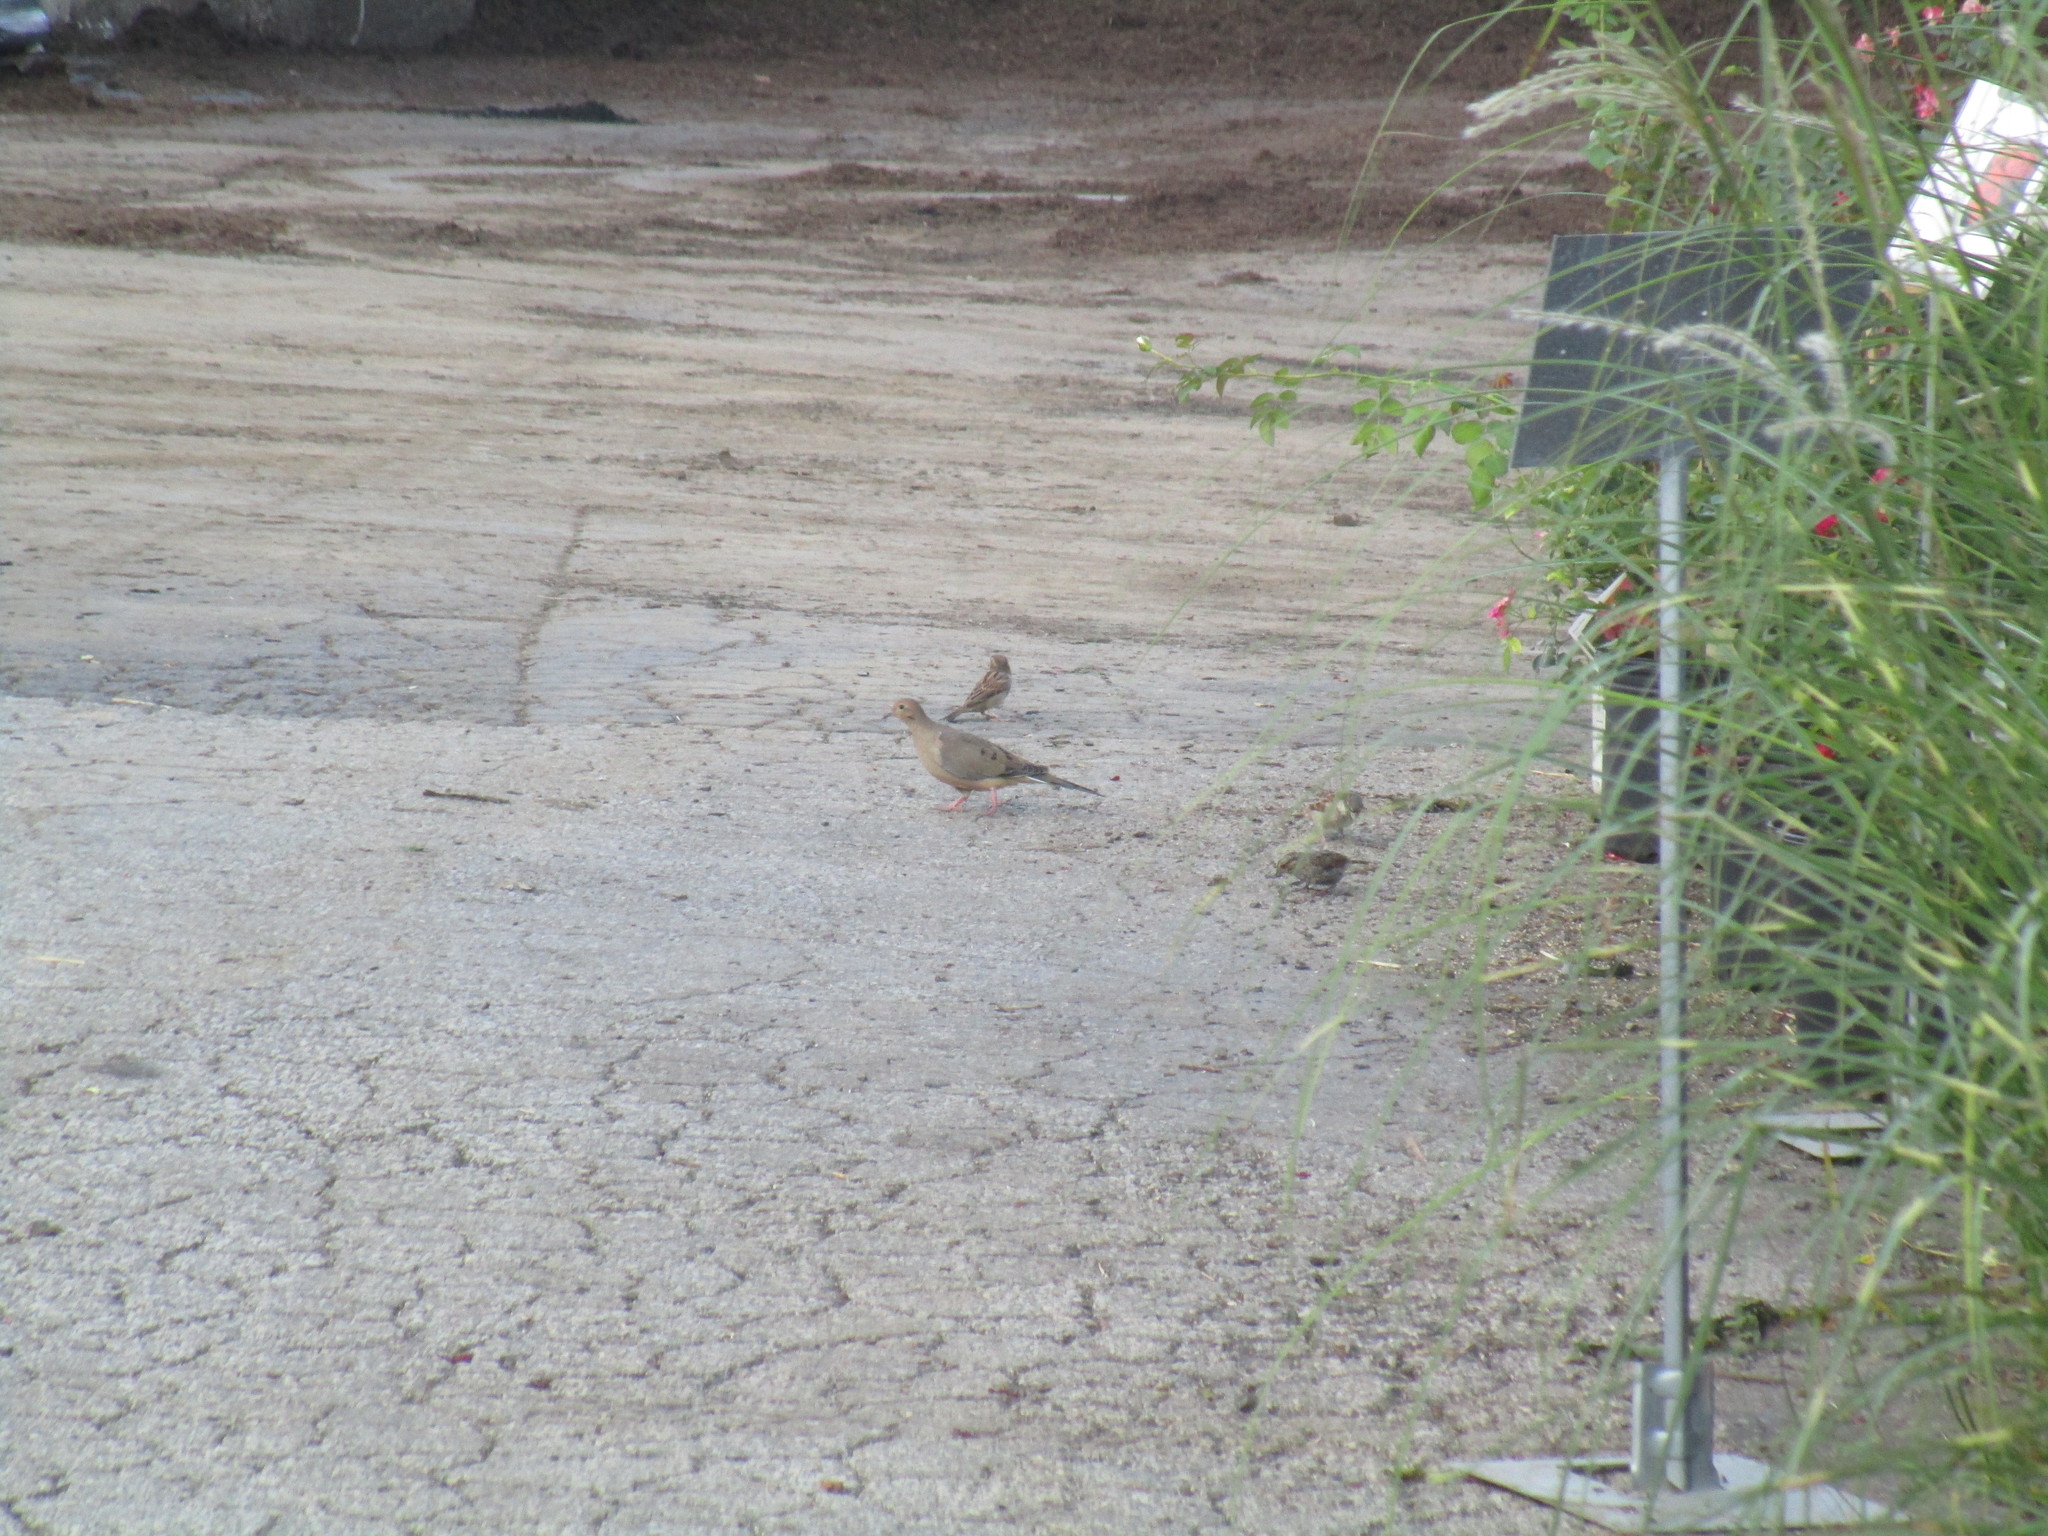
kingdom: Animalia
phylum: Chordata
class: Aves
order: Passeriformes
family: Passeridae
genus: Passer
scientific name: Passer domesticus
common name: House sparrow
